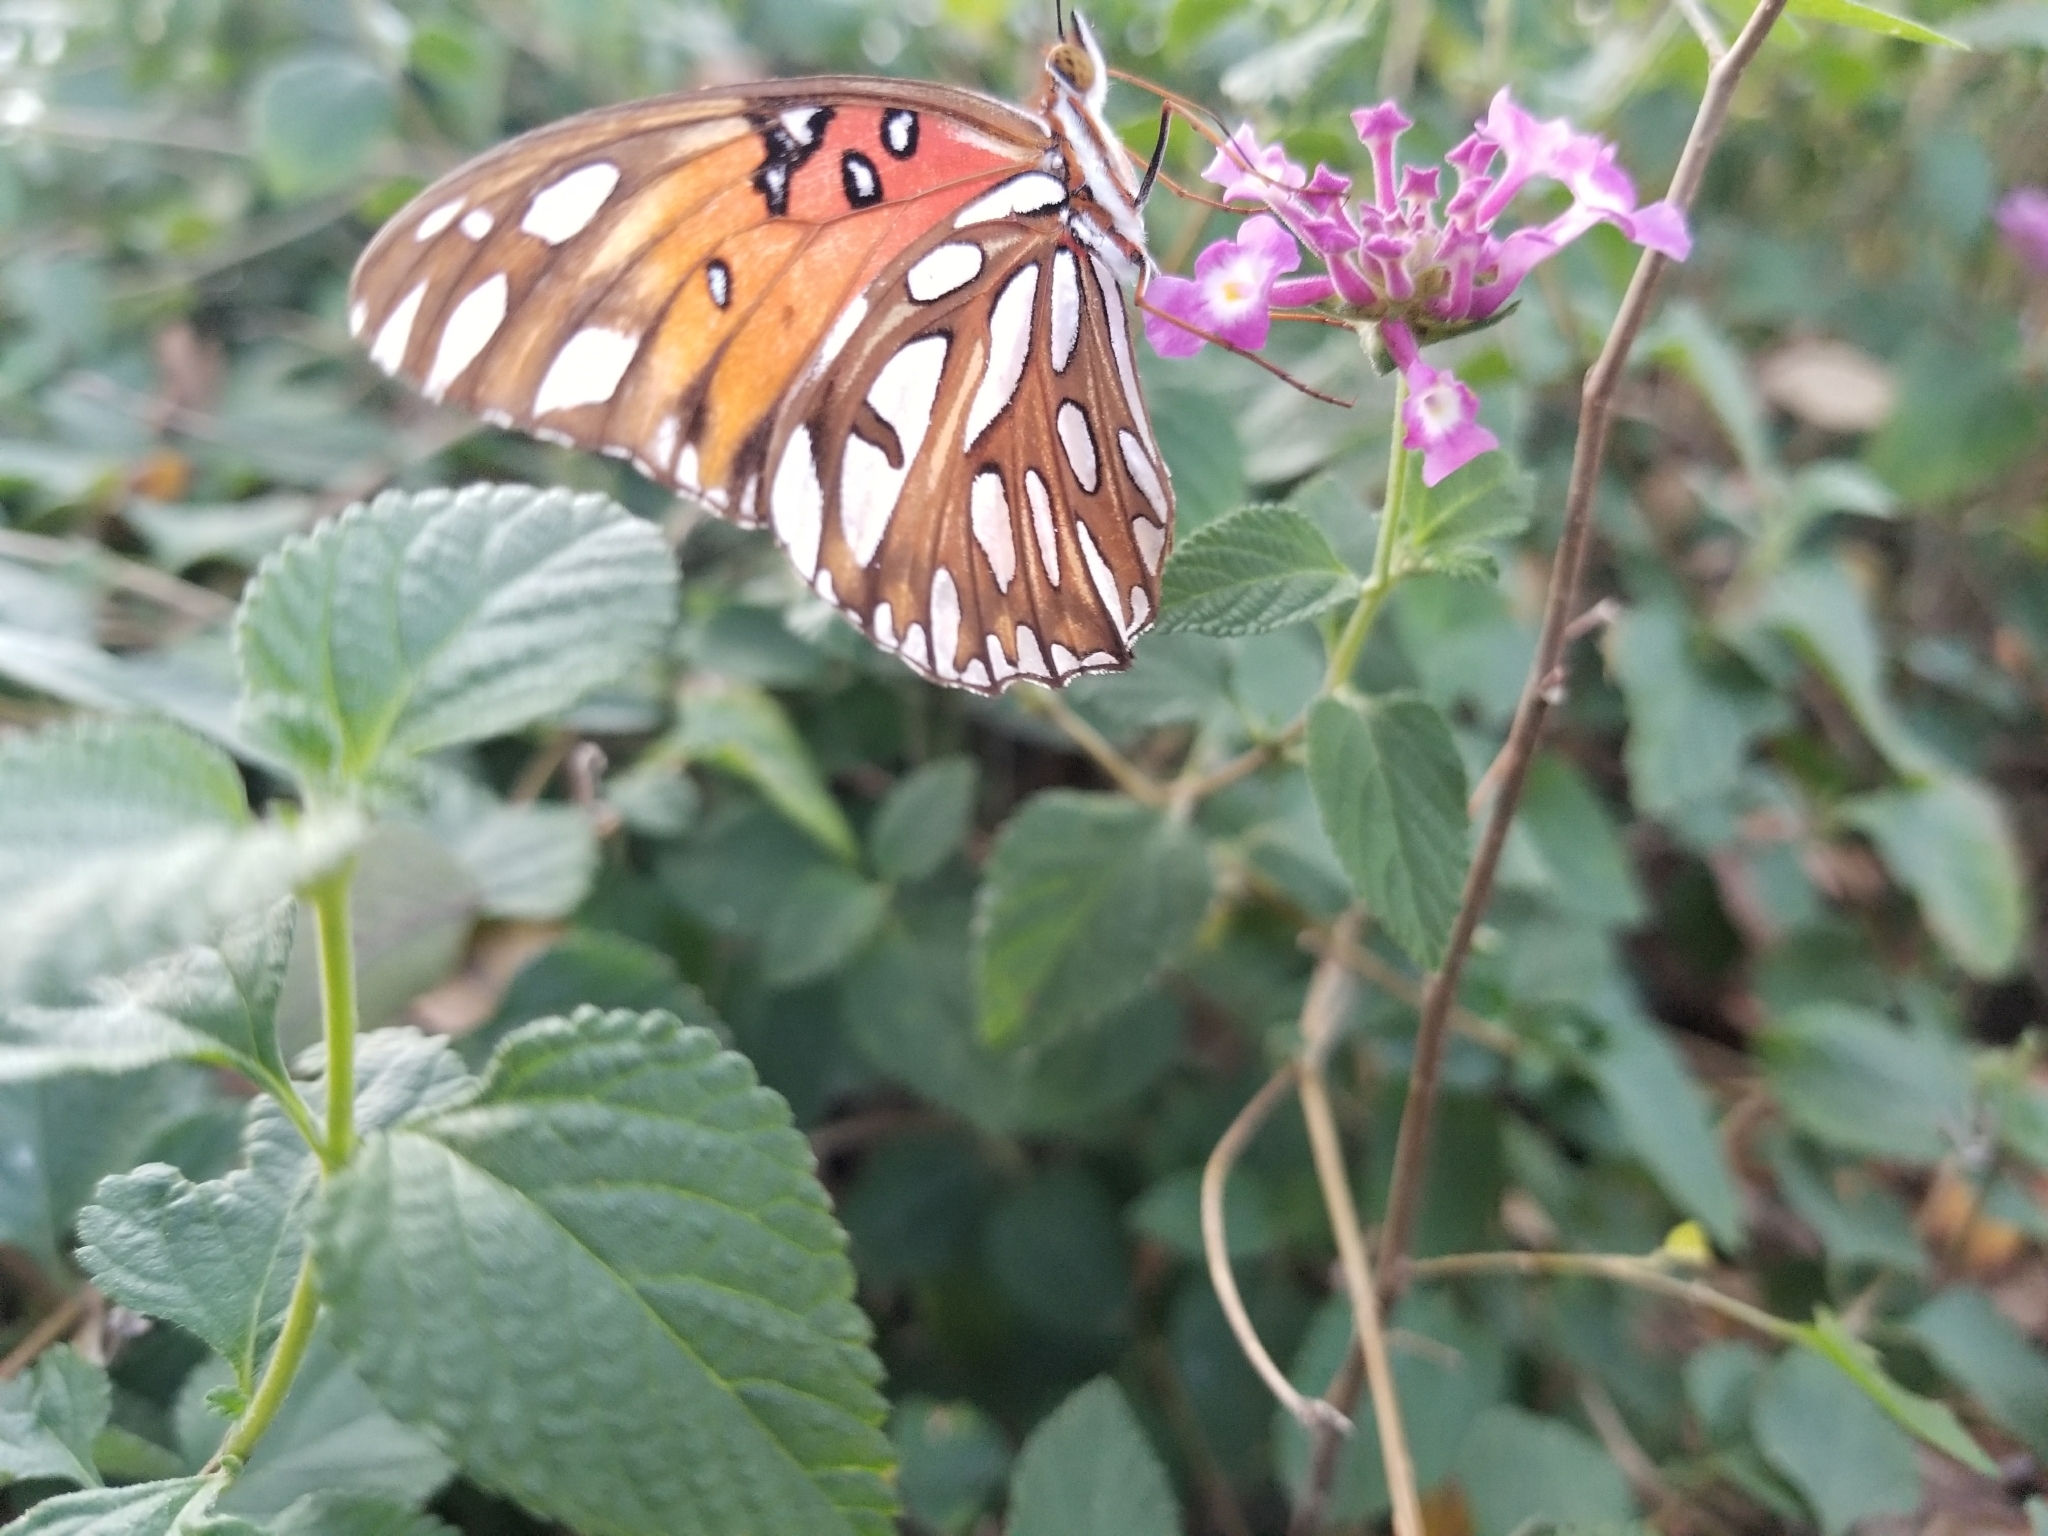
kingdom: Animalia
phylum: Arthropoda
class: Insecta
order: Lepidoptera
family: Nymphalidae
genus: Dione
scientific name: Dione vanillae
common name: Gulf fritillary
